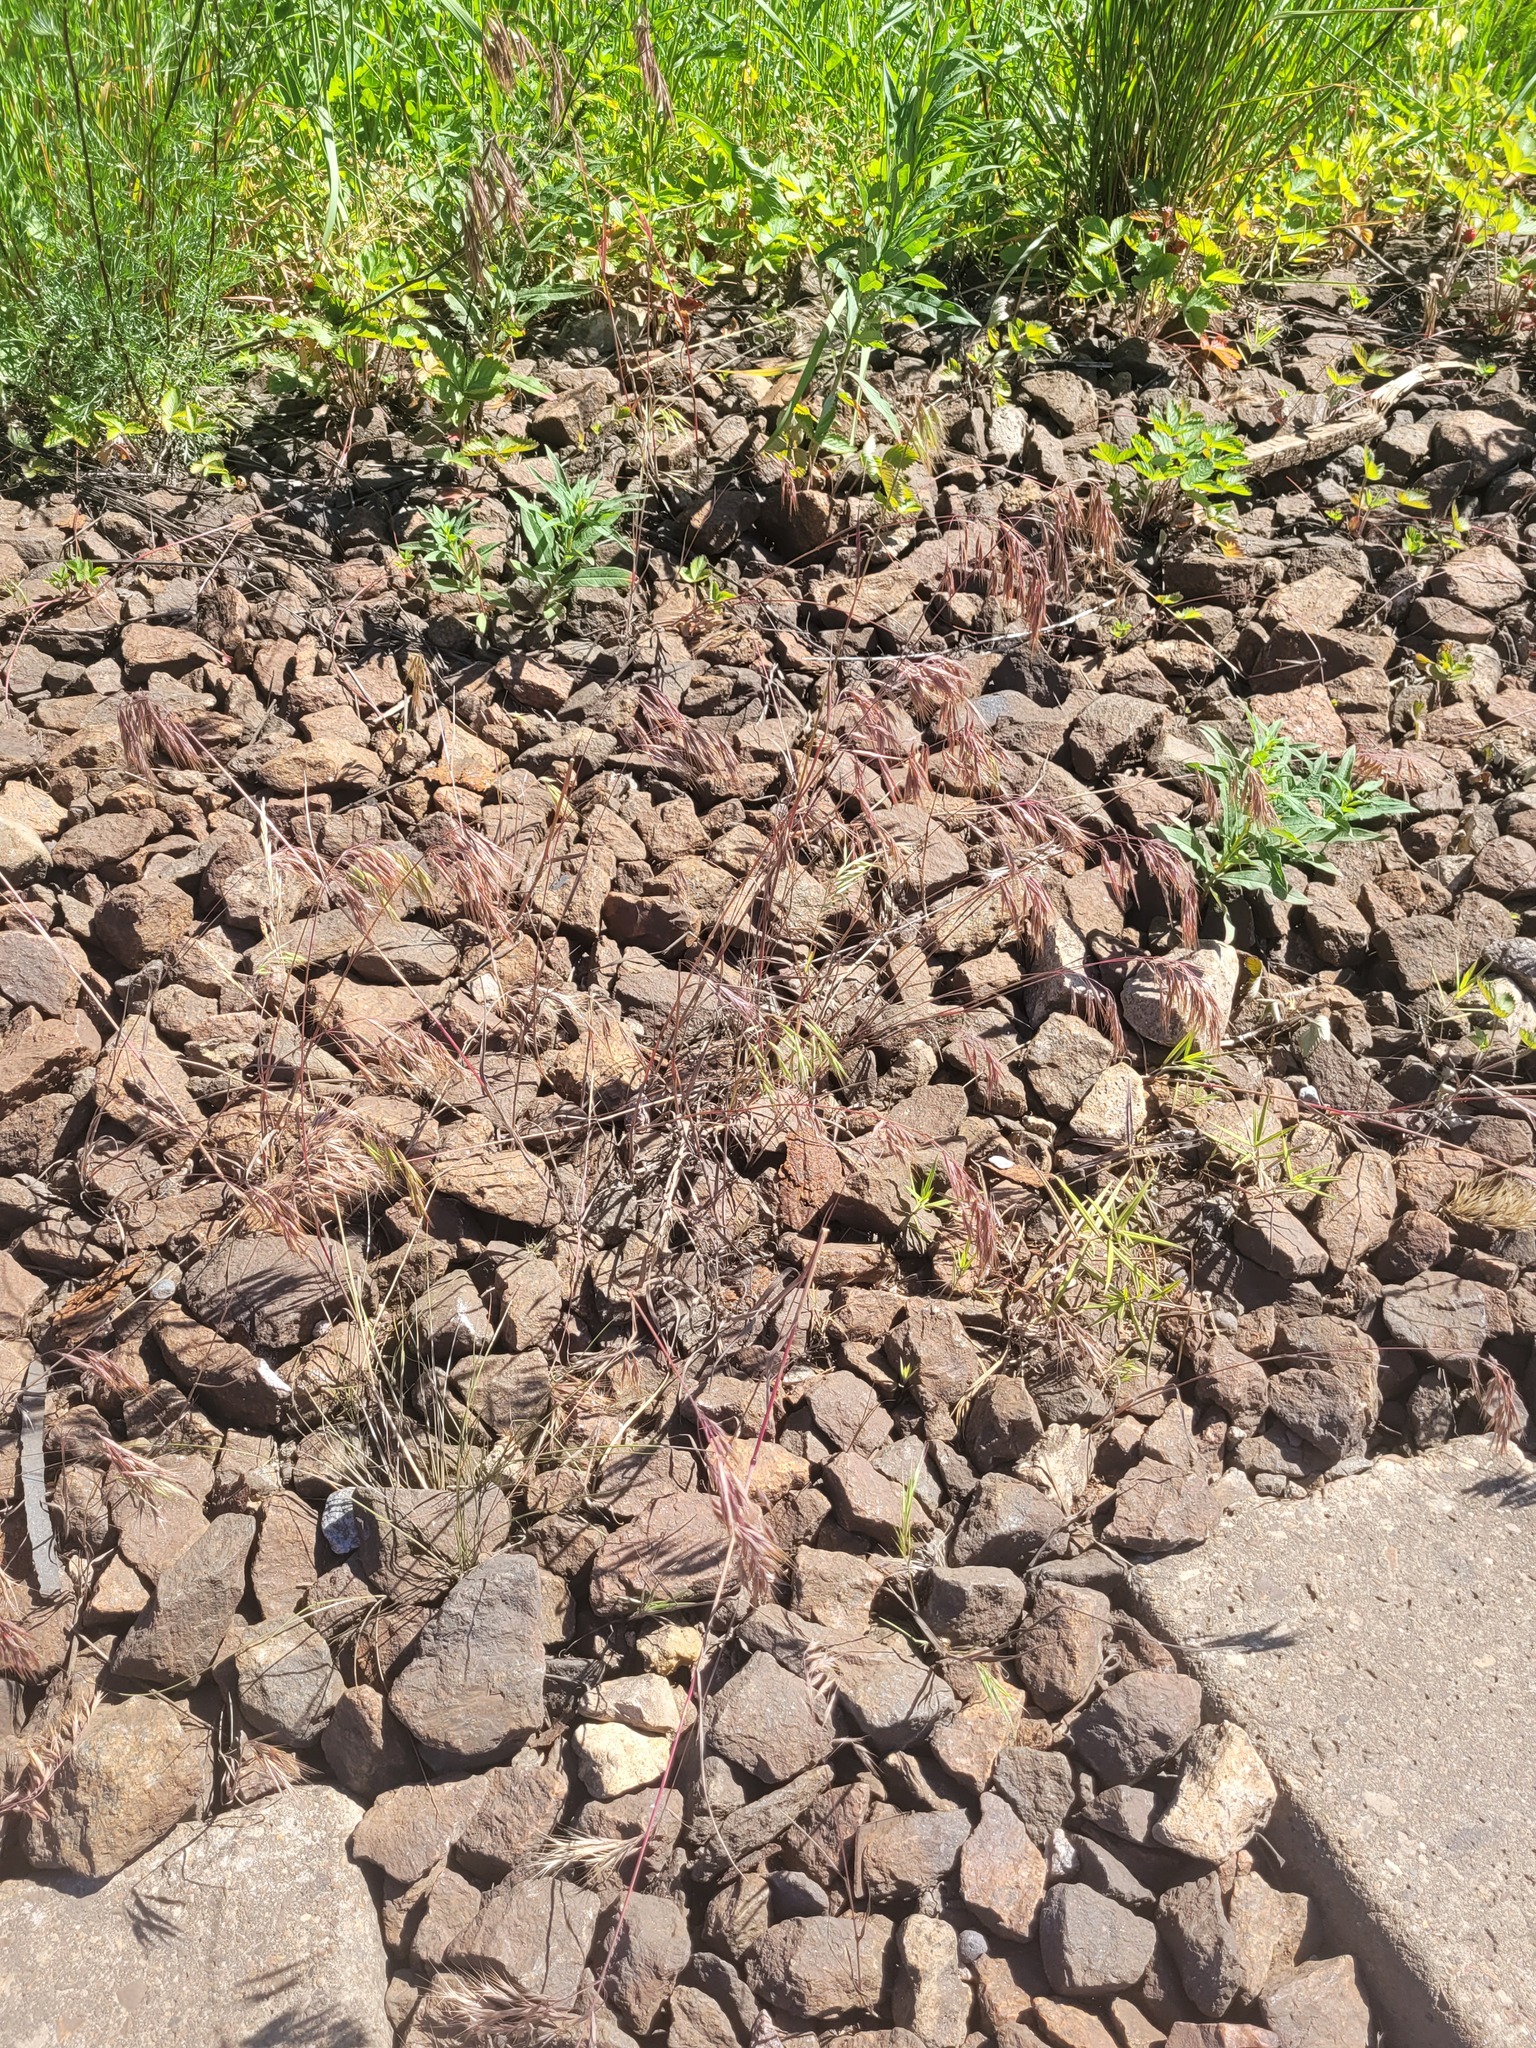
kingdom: Plantae
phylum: Tracheophyta
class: Liliopsida
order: Poales
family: Poaceae
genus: Bromus
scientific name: Bromus tectorum
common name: Cheatgrass
